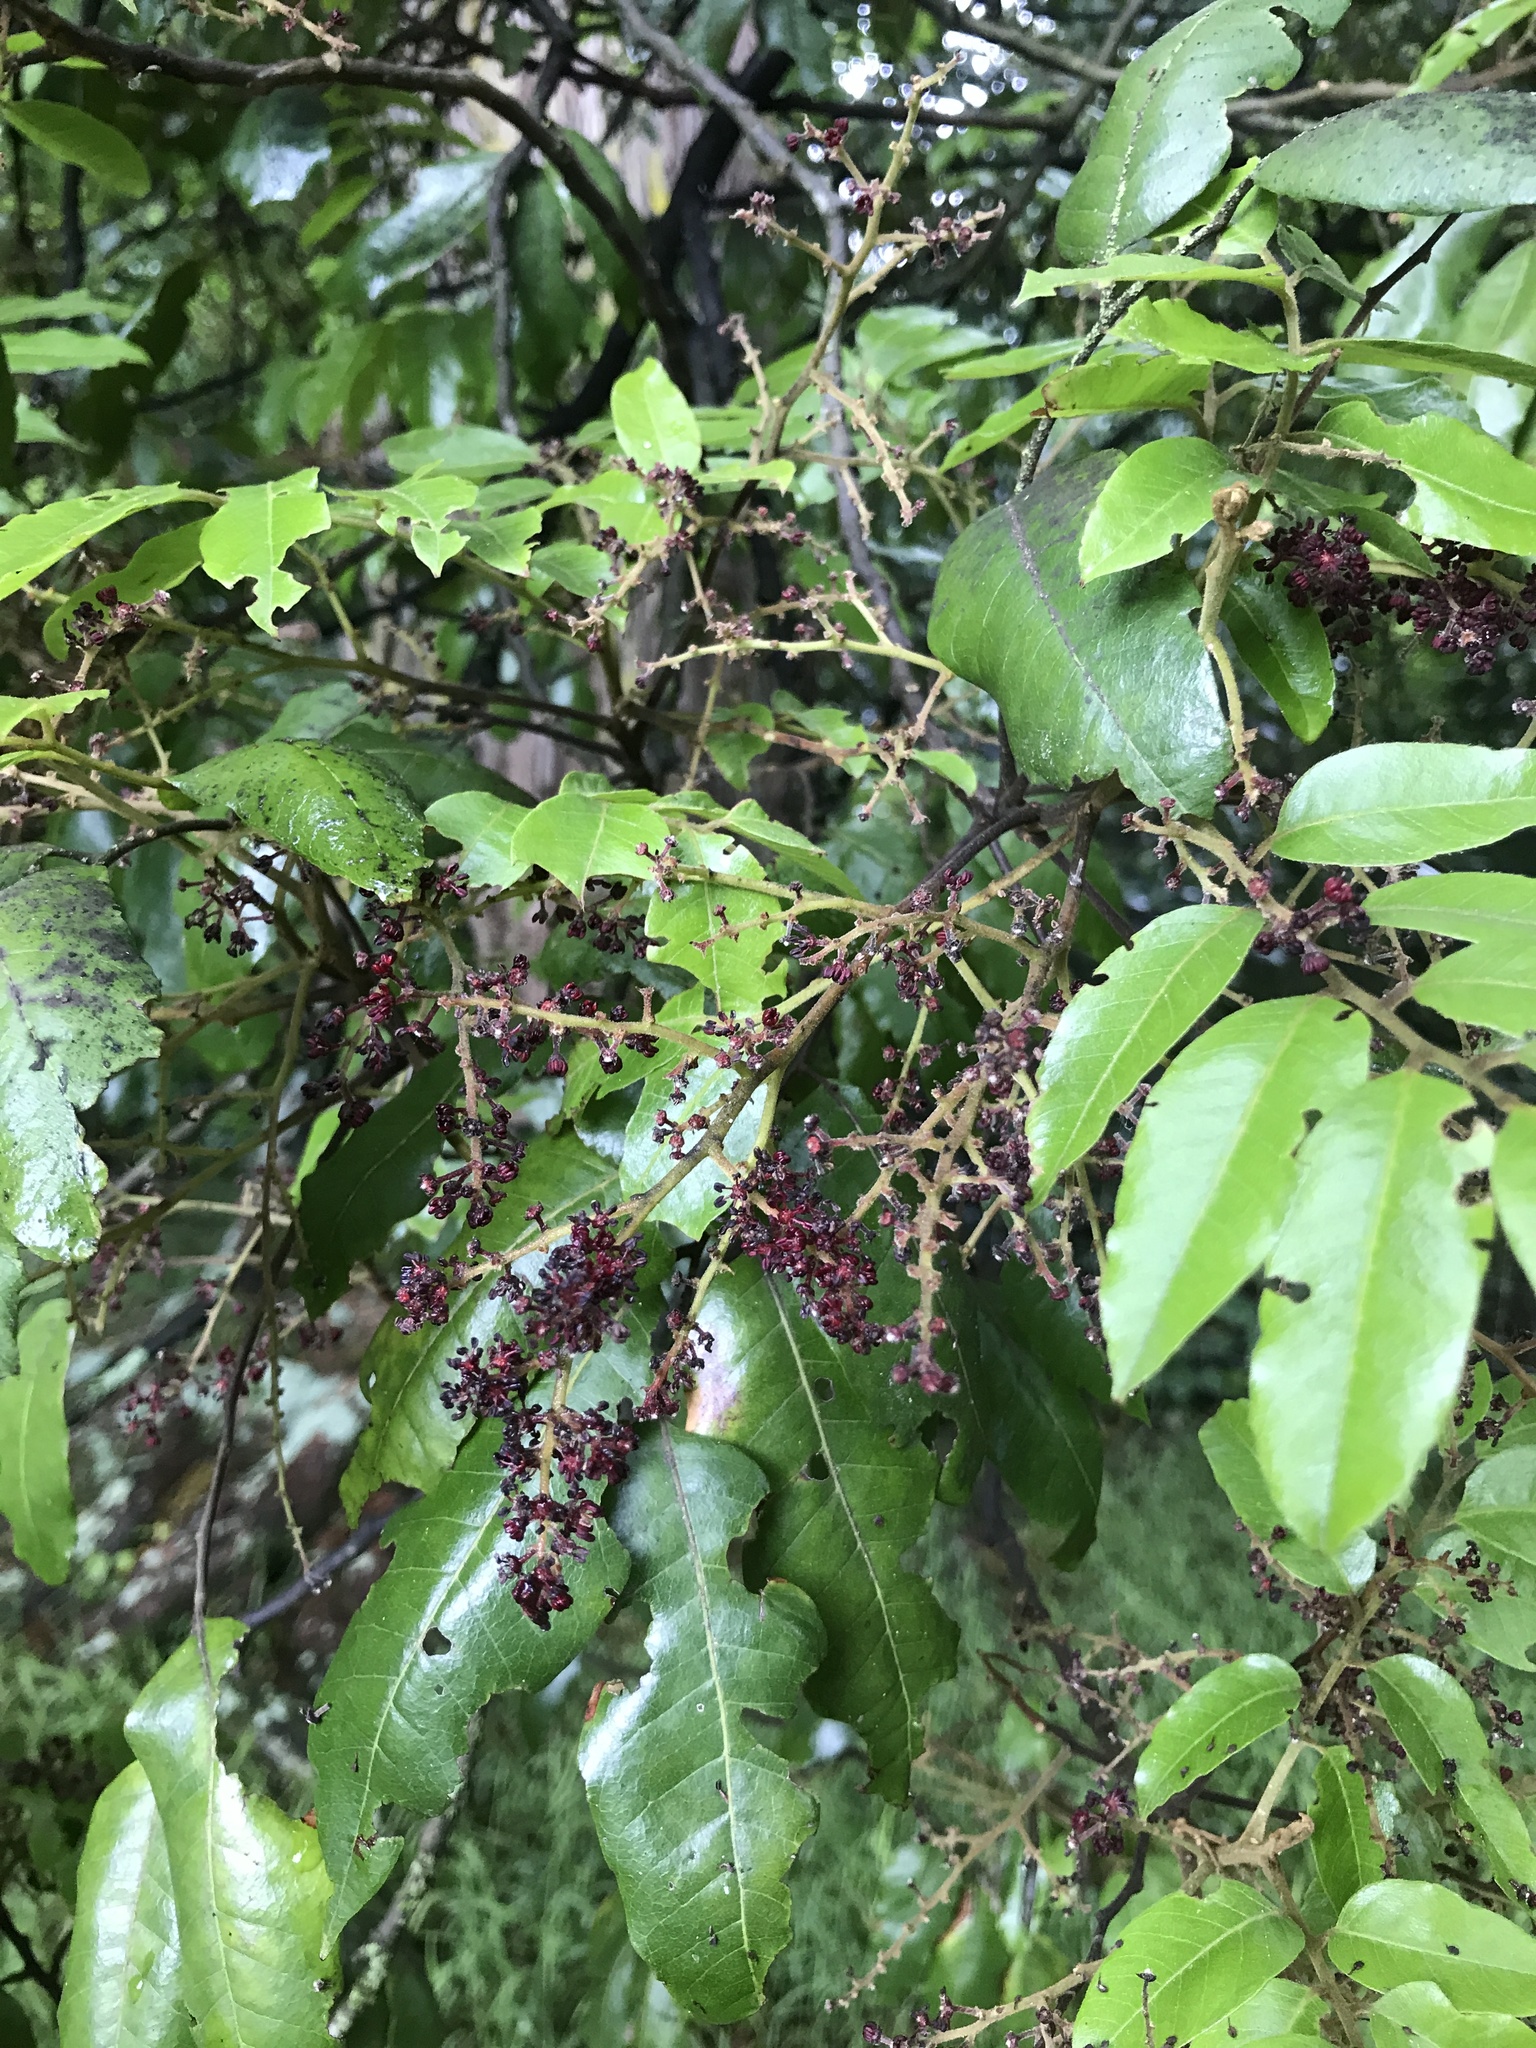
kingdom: Plantae
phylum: Tracheophyta
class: Magnoliopsida
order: Sapindales
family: Sapindaceae
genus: Alectryon
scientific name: Alectryon excelsus
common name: Three kings titoki
